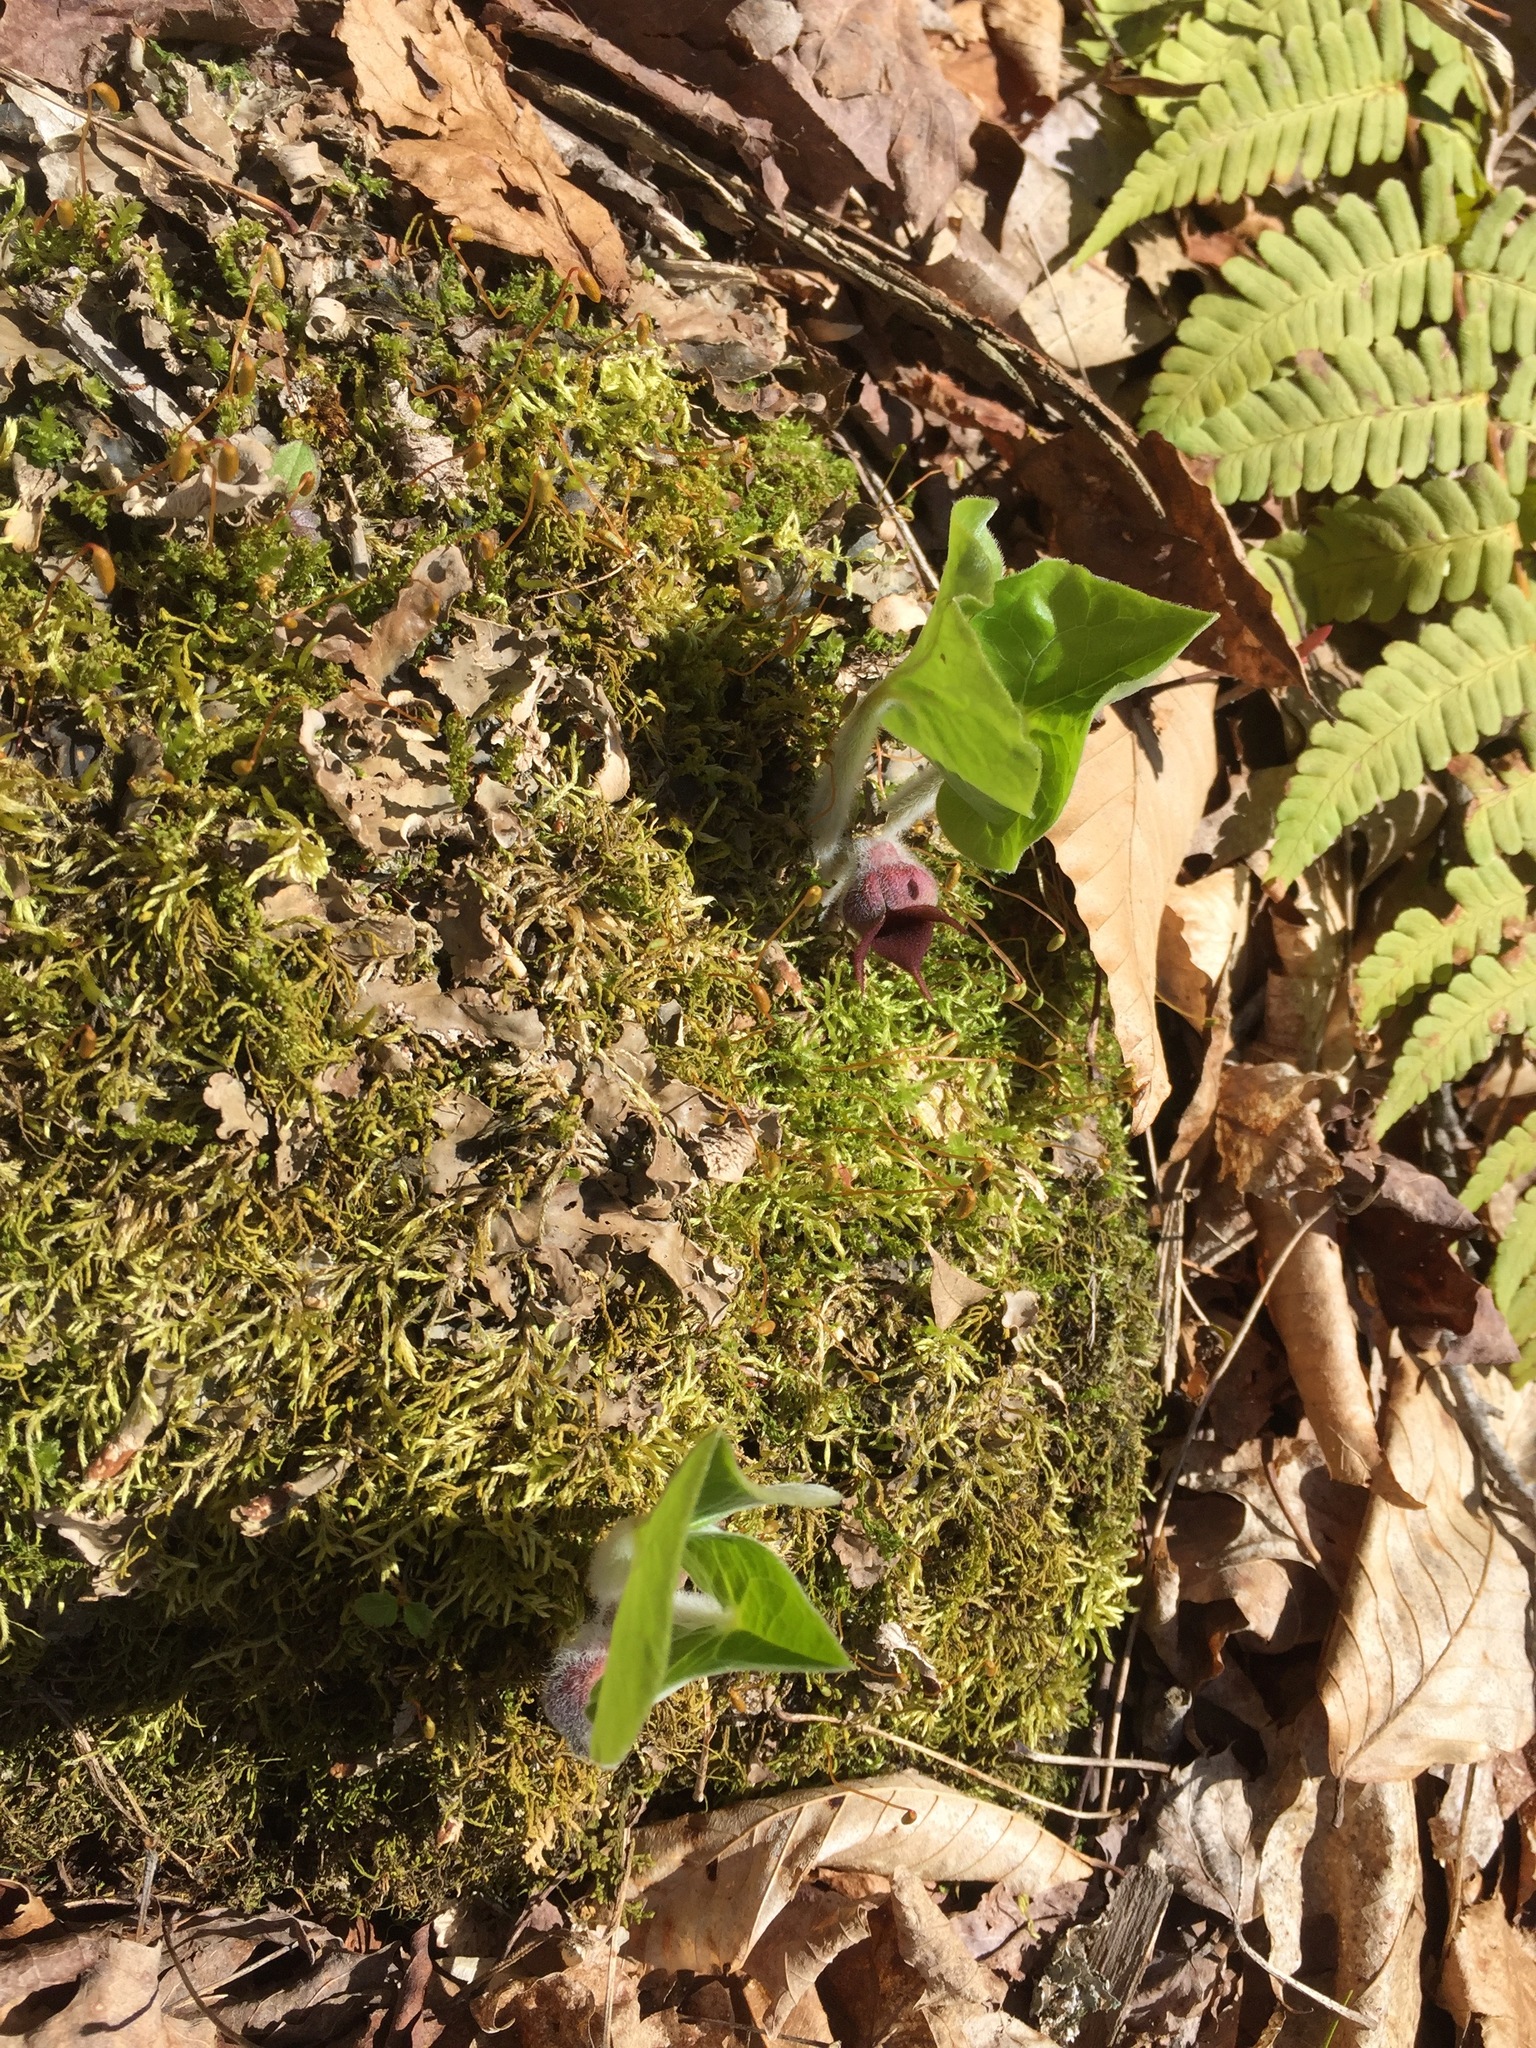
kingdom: Plantae
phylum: Tracheophyta
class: Magnoliopsida
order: Piperales
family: Aristolochiaceae
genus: Asarum
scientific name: Asarum canadense
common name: Wild ginger
